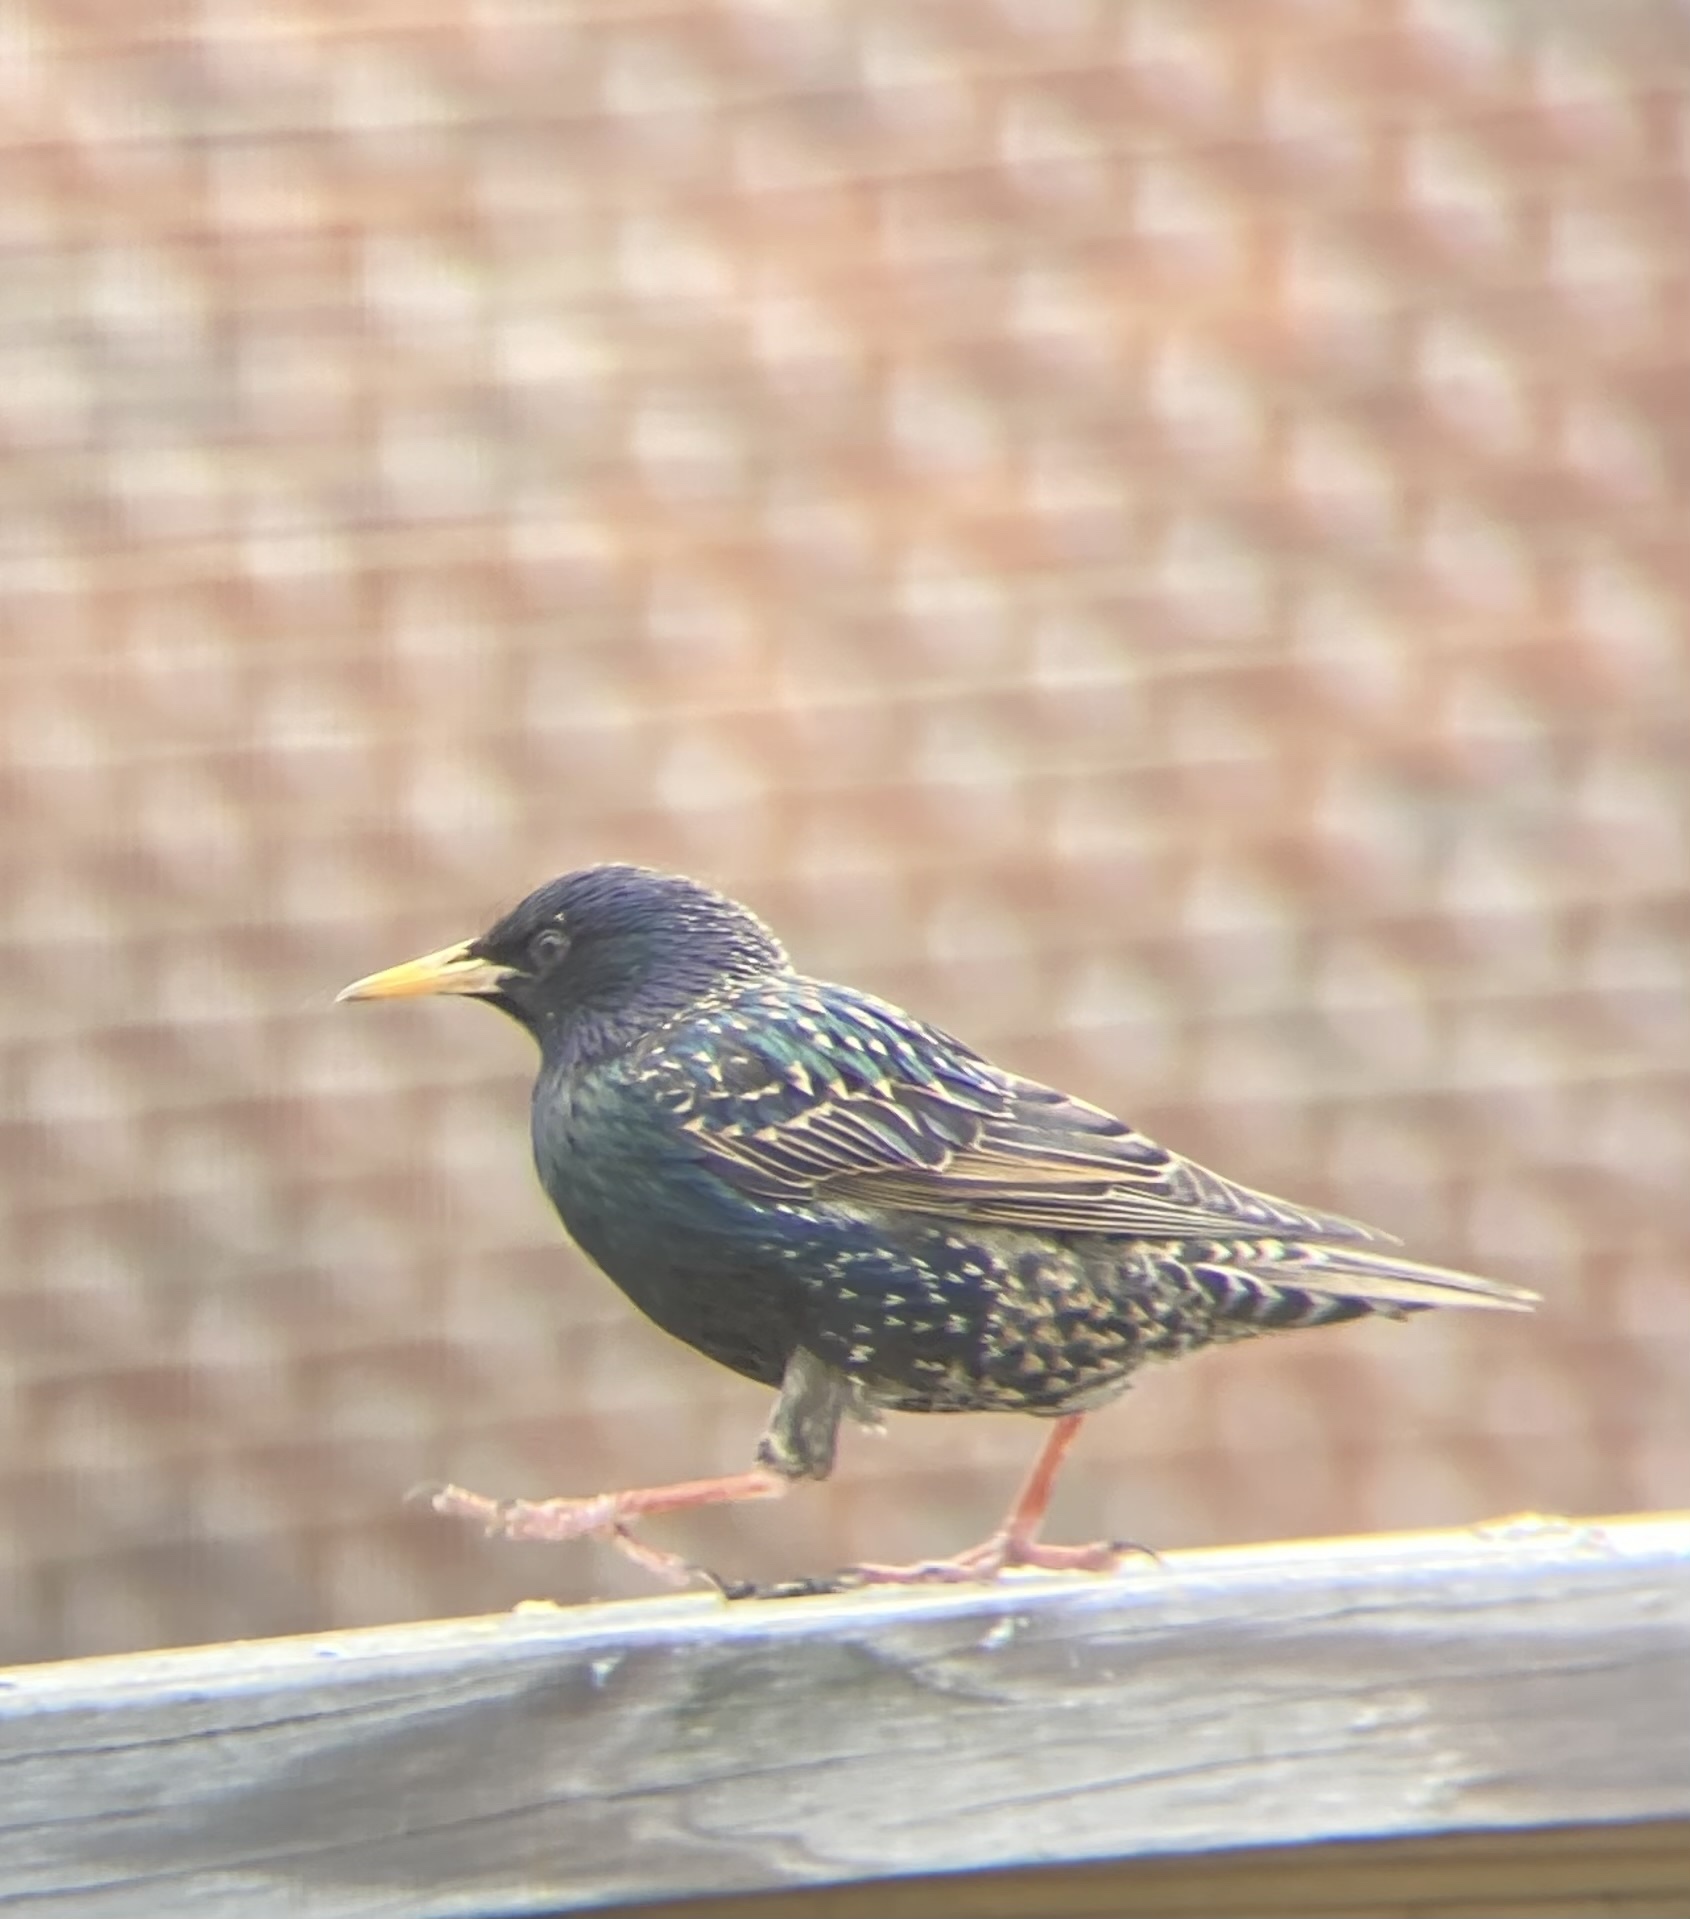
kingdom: Animalia
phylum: Chordata
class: Aves
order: Passeriformes
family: Sturnidae
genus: Sturnus
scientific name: Sturnus vulgaris
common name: Common starling
